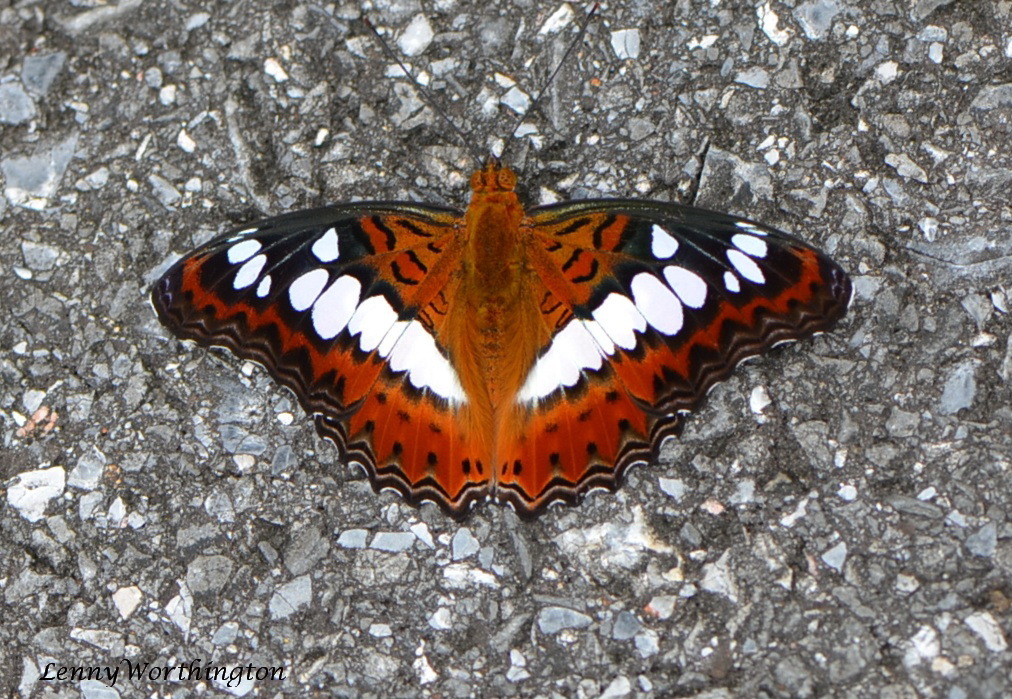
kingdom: Animalia
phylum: Arthropoda
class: Insecta
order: Lepidoptera
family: Nymphalidae
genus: Limenitis
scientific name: Limenitis Moduza procris
